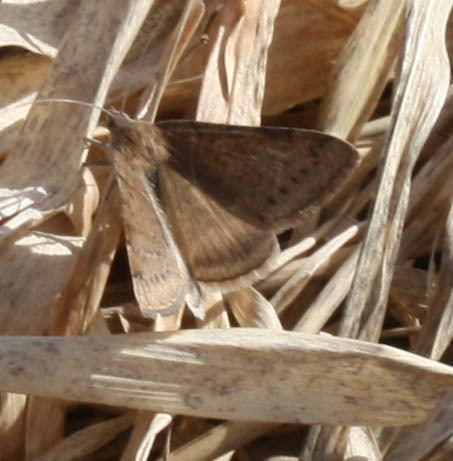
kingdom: Animalia
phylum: Arthropoda
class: Insecta
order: Lepidoptera
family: Erebidae
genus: Caenurgina
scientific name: Caenurgina erechtea
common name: Forage looper moth
